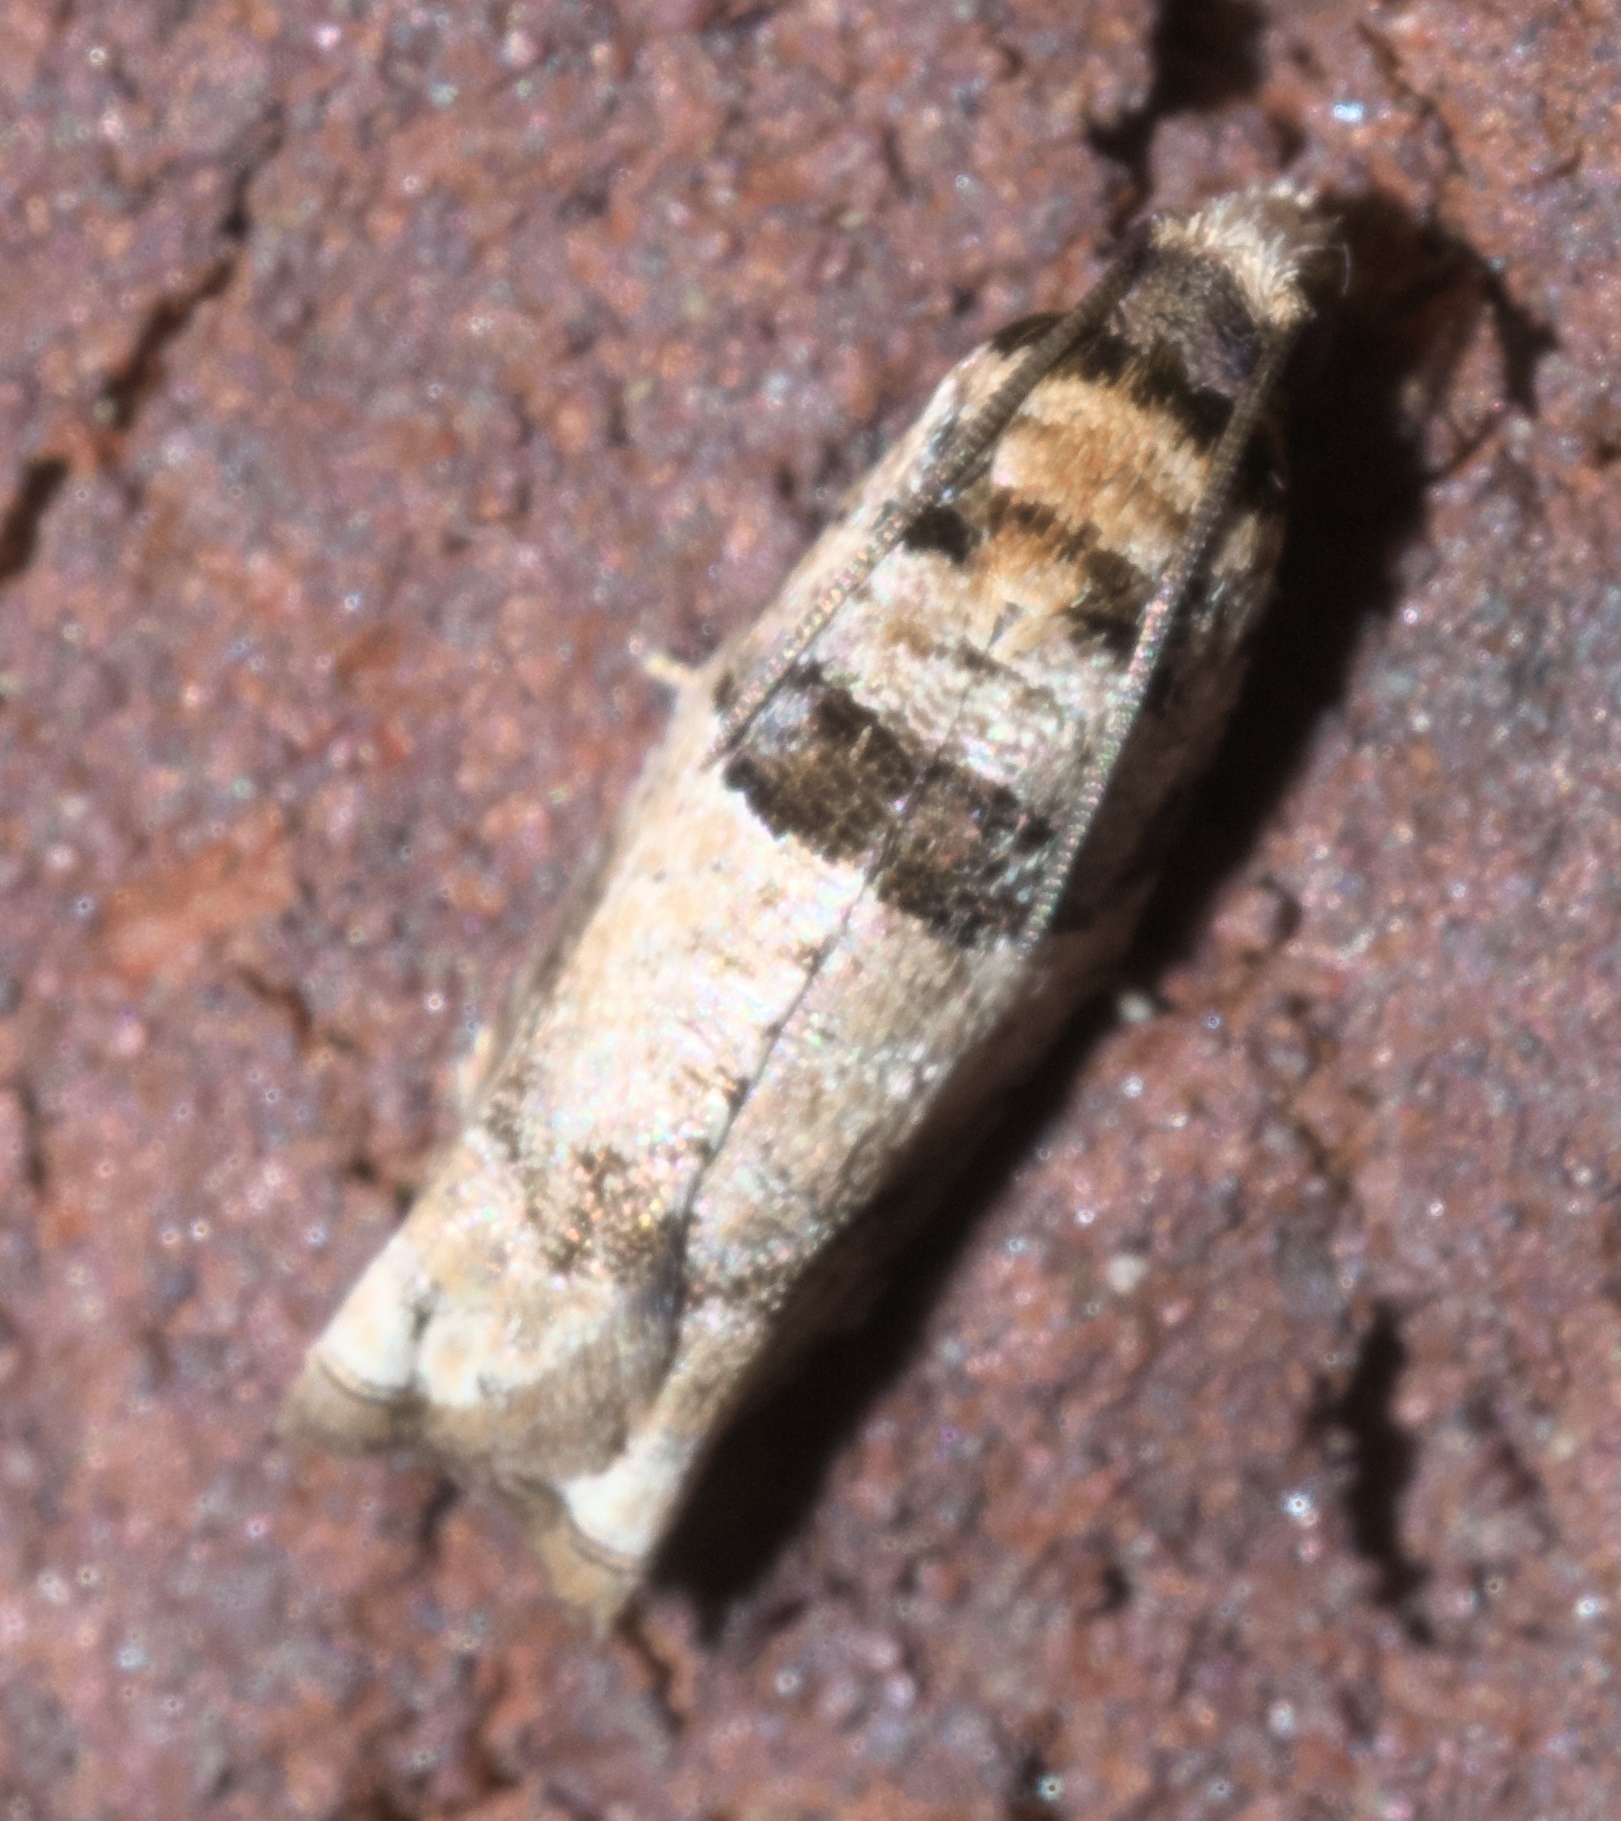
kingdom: Animalia
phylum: Arthropoda
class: Insecta
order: Lepidoptera
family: Tortricidae
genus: Rhopobota
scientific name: Rhopobota dietziana
